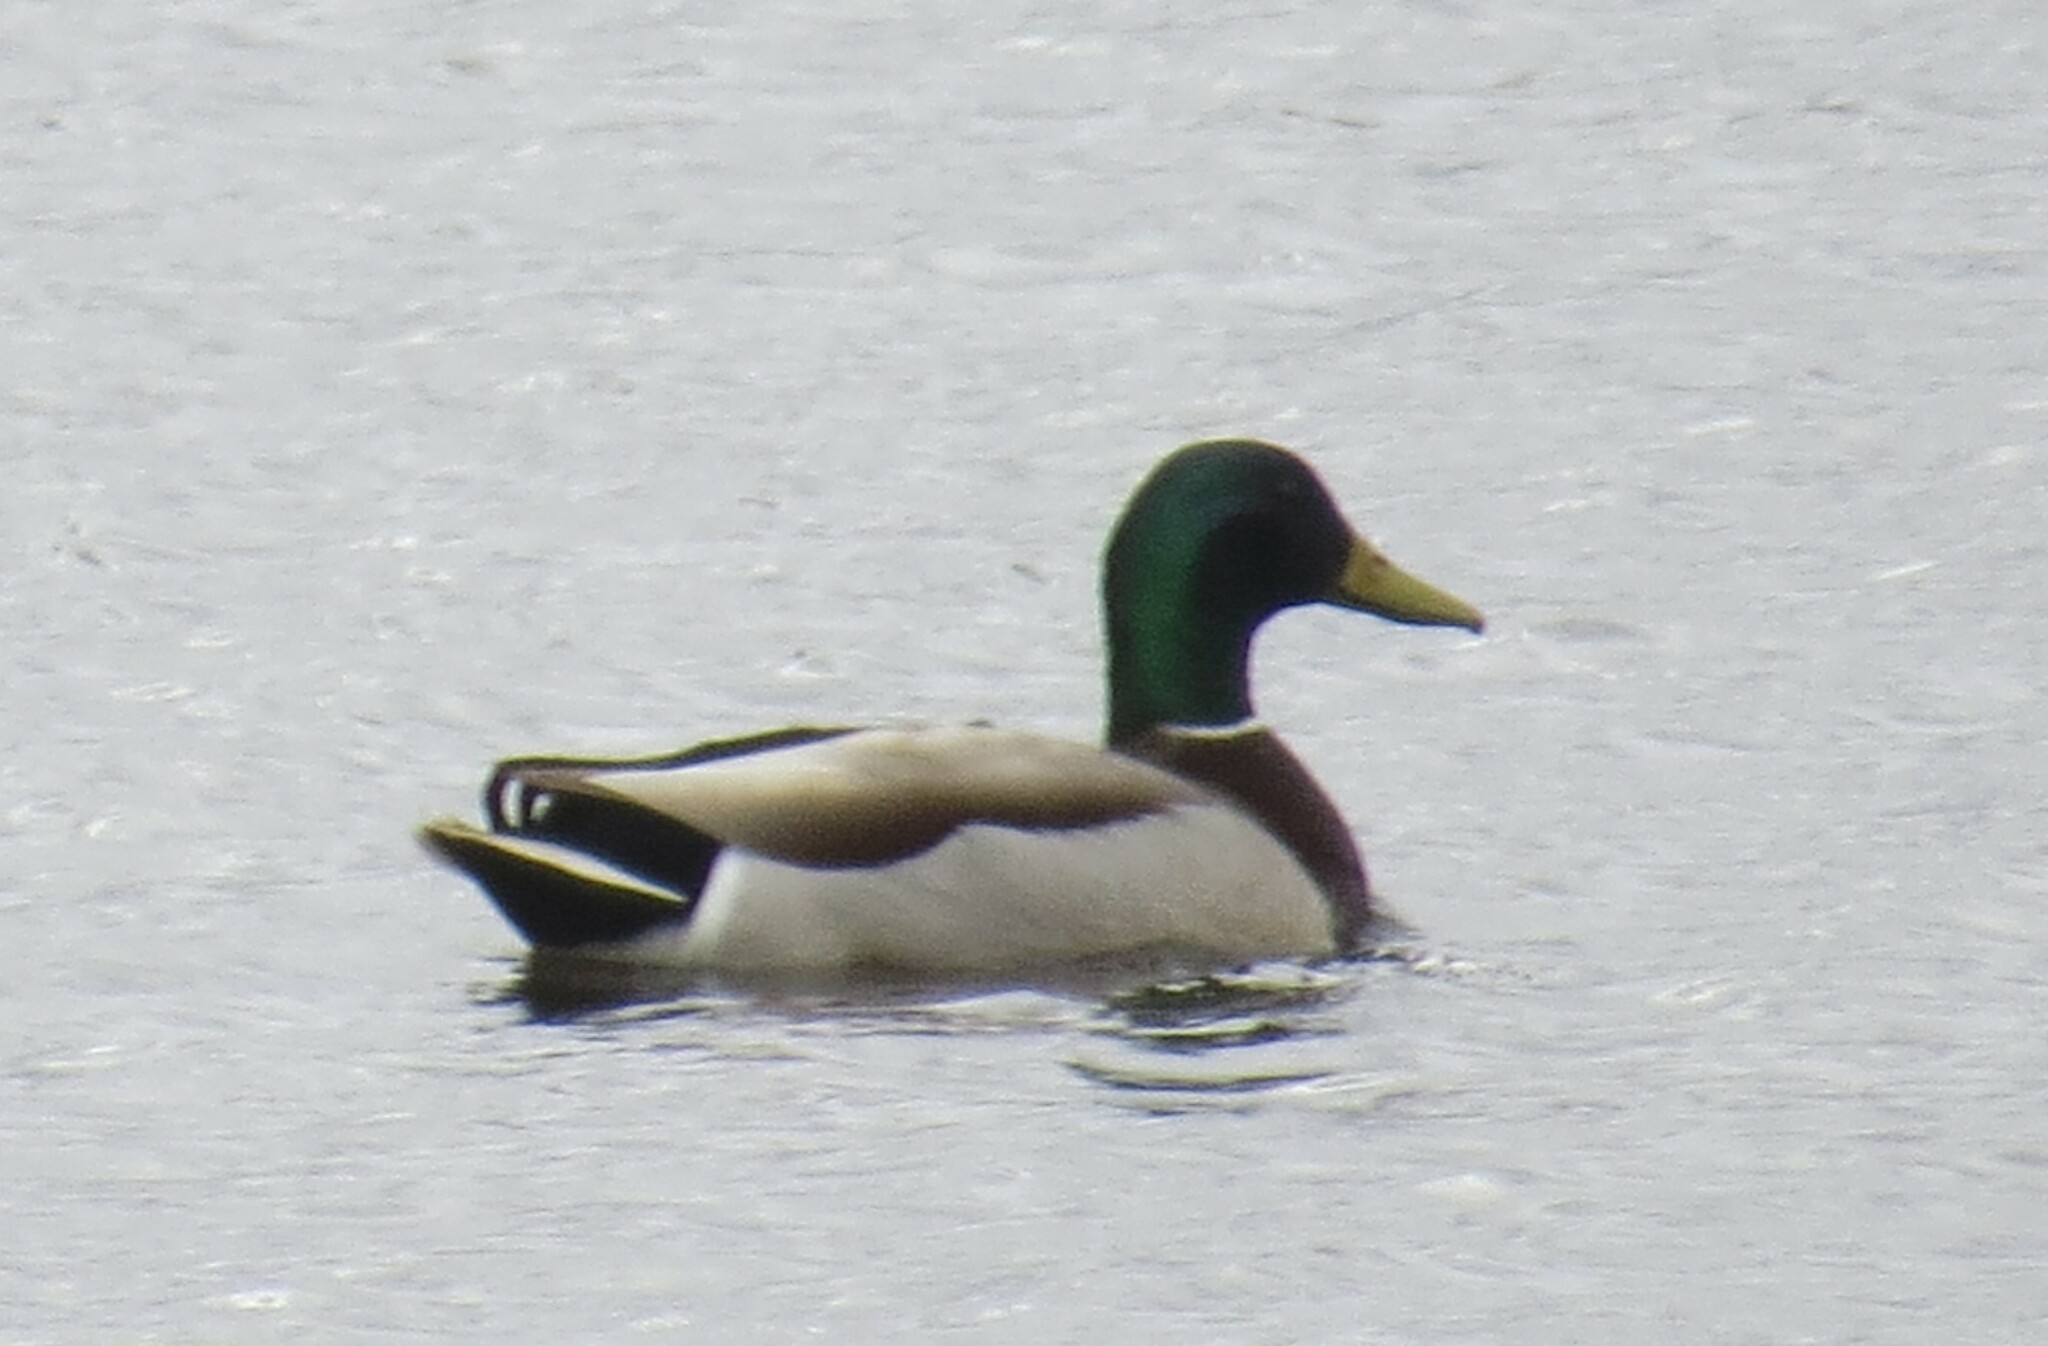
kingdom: Animalia
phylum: Chordata
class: Aves
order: Anseriformes
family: Anatidae
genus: Anas
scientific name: Anas platyrhynchos
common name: Mallard
